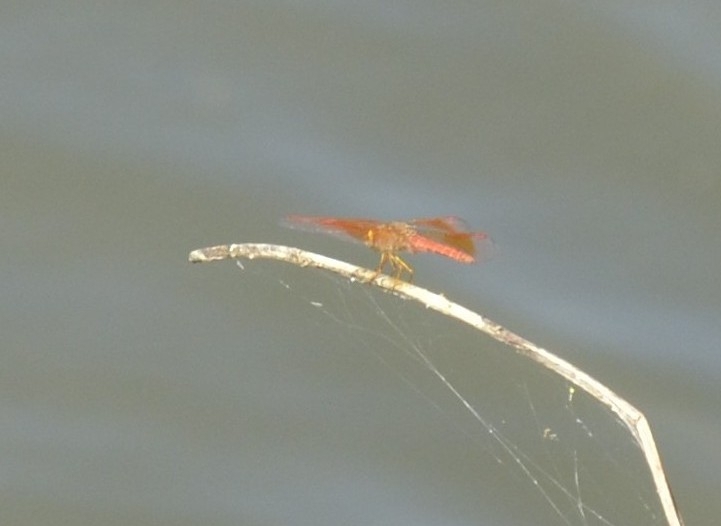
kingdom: Animalia
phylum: Arthropoda
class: Insecta
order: Odonata
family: Libellulidae
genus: Brachythemis
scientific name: Brachythemis contaminata
